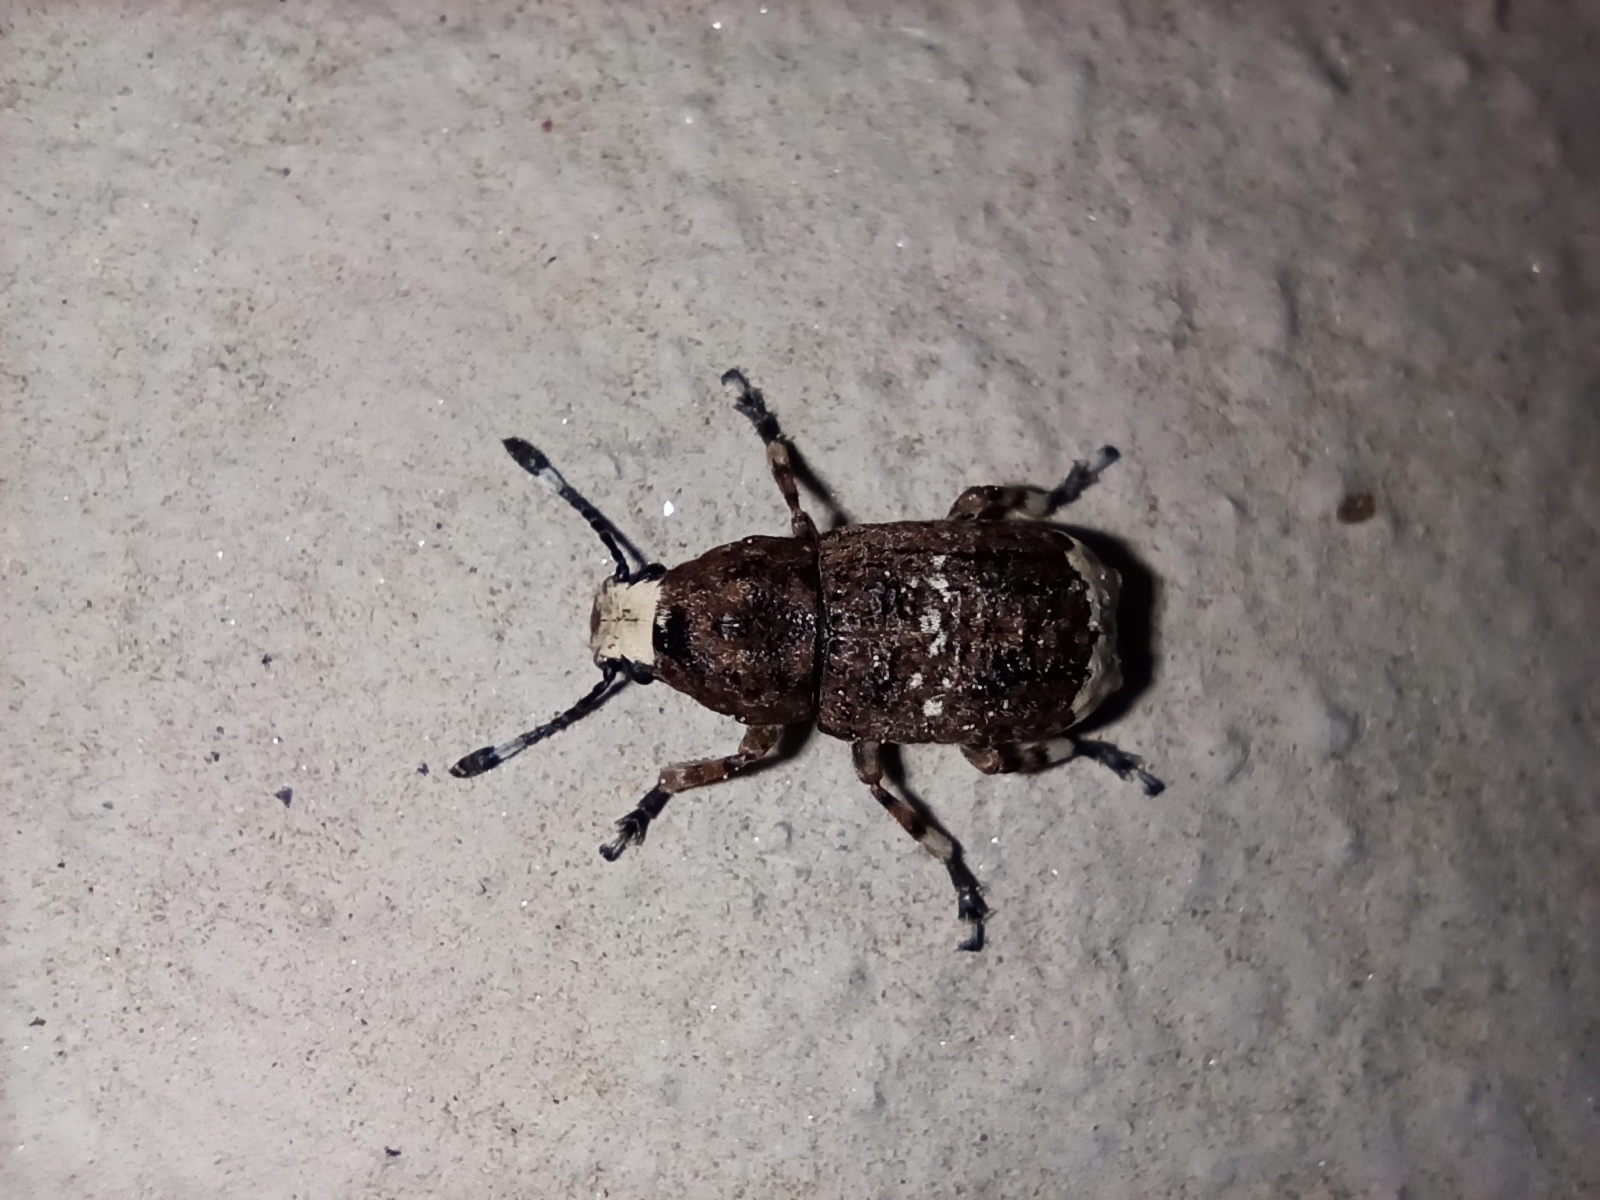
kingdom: Animalia
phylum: Arthropoda
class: Insecta
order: Coleoptera
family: Anthribidae
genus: Platystomos
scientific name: Platystomos albinus
